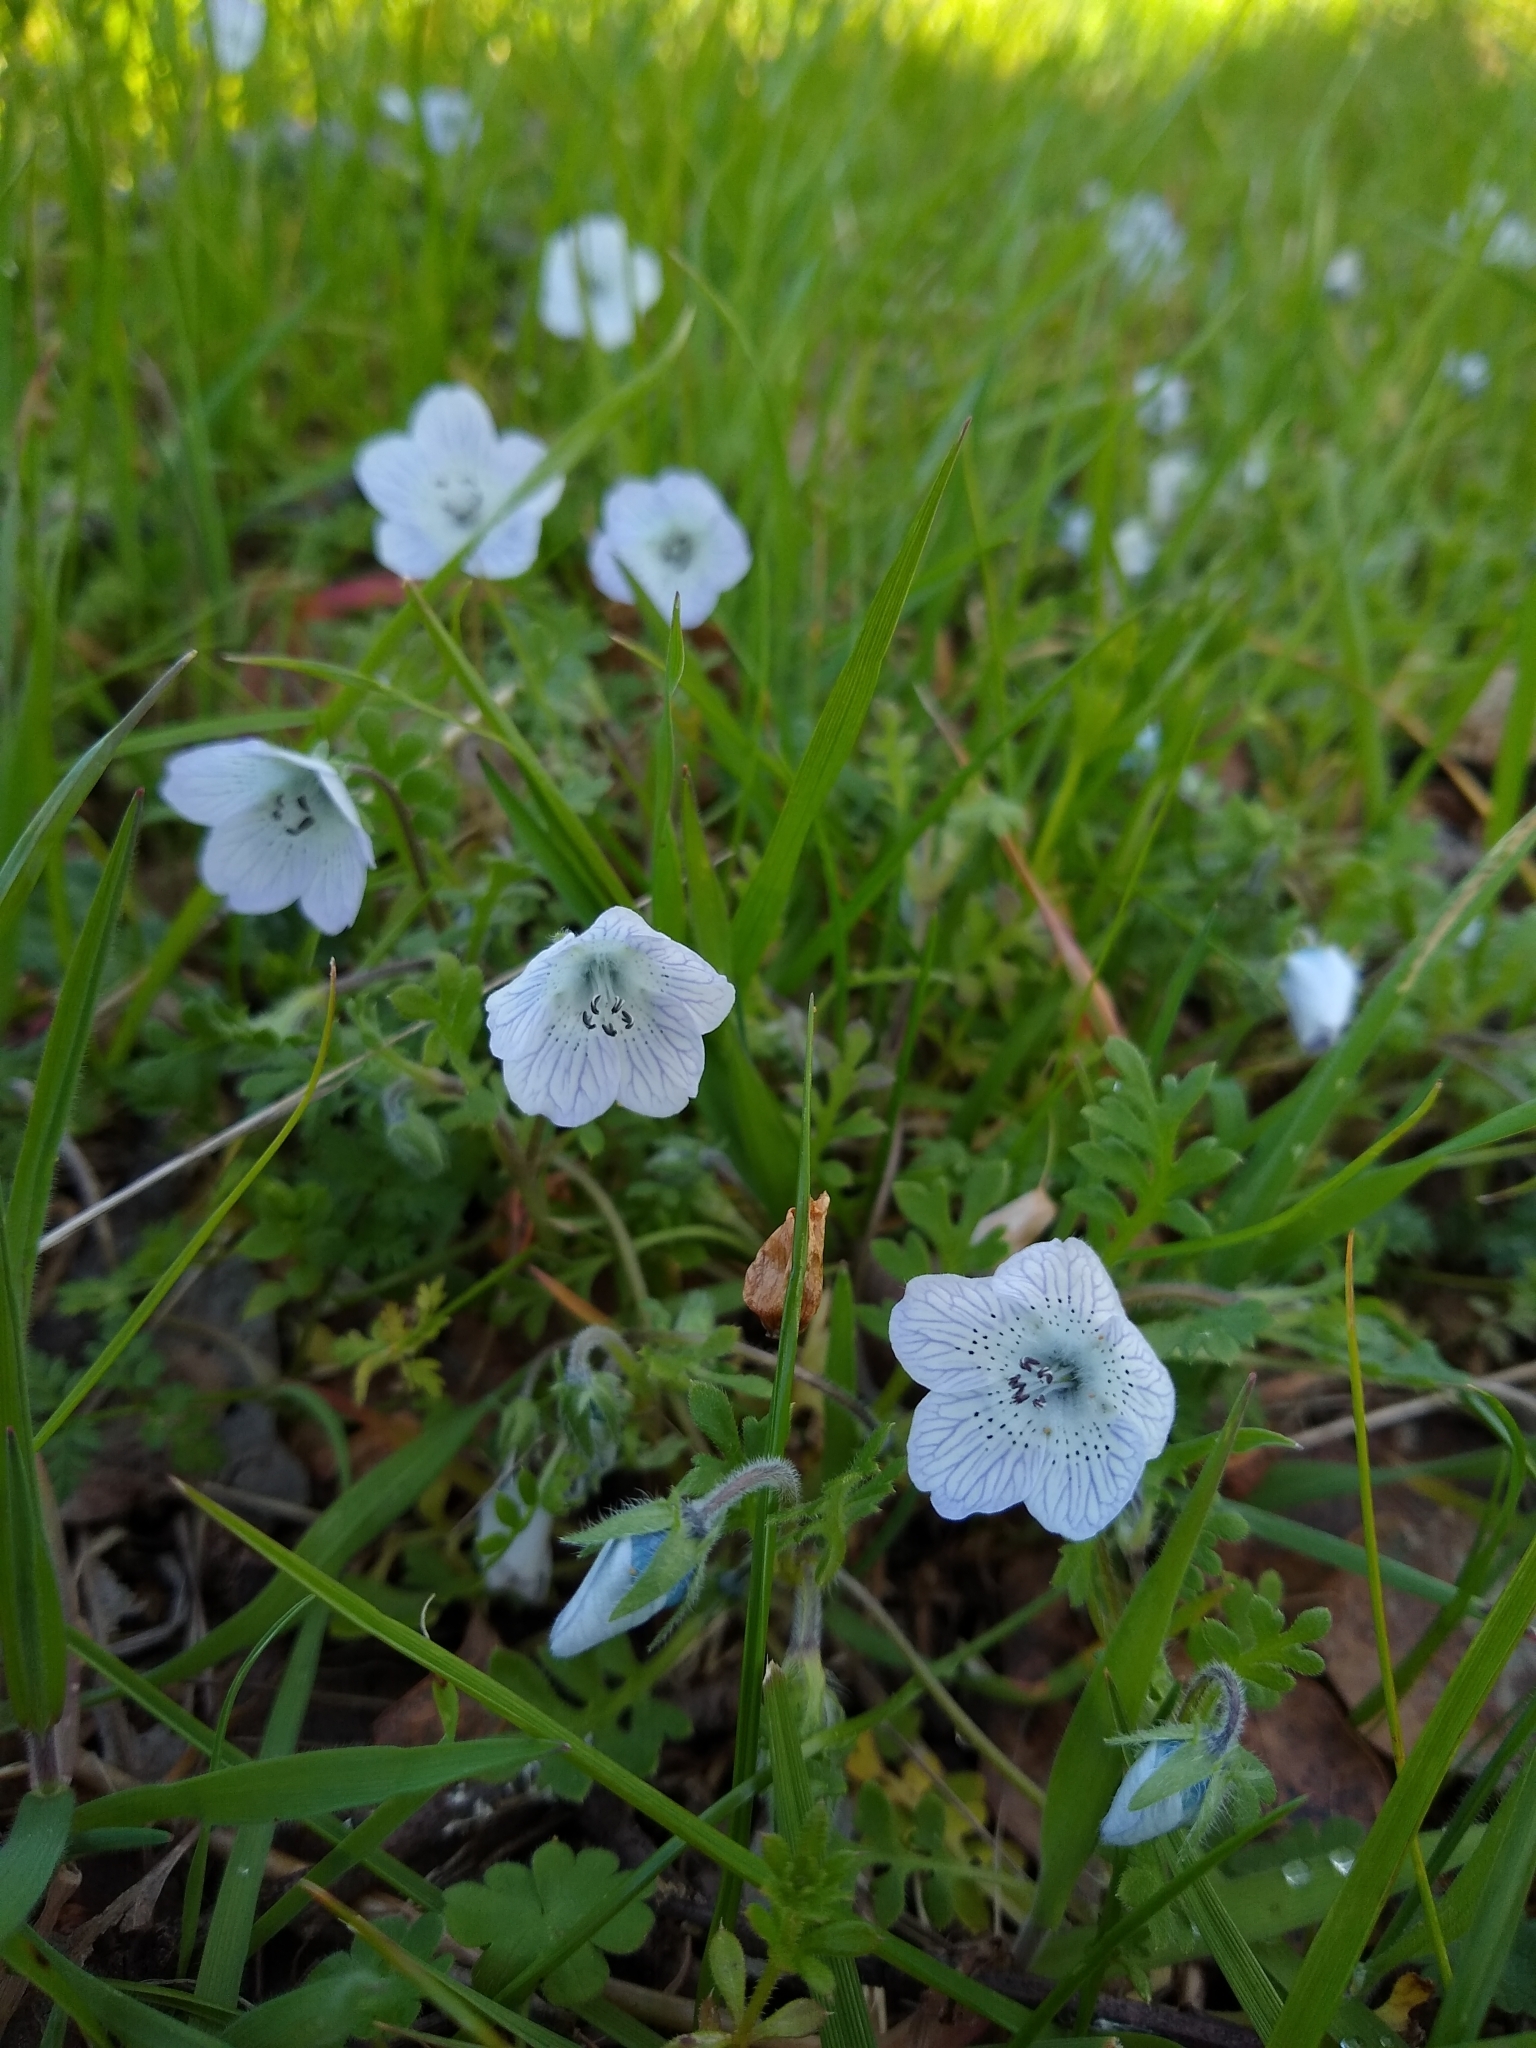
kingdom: Plantae
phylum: Tracheophyta
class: Magnoliopsida
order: Boraginales
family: Hydrophyllaceae
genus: Nemophila
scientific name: Nemophila menziesii
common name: Baby's-blue-eyes
